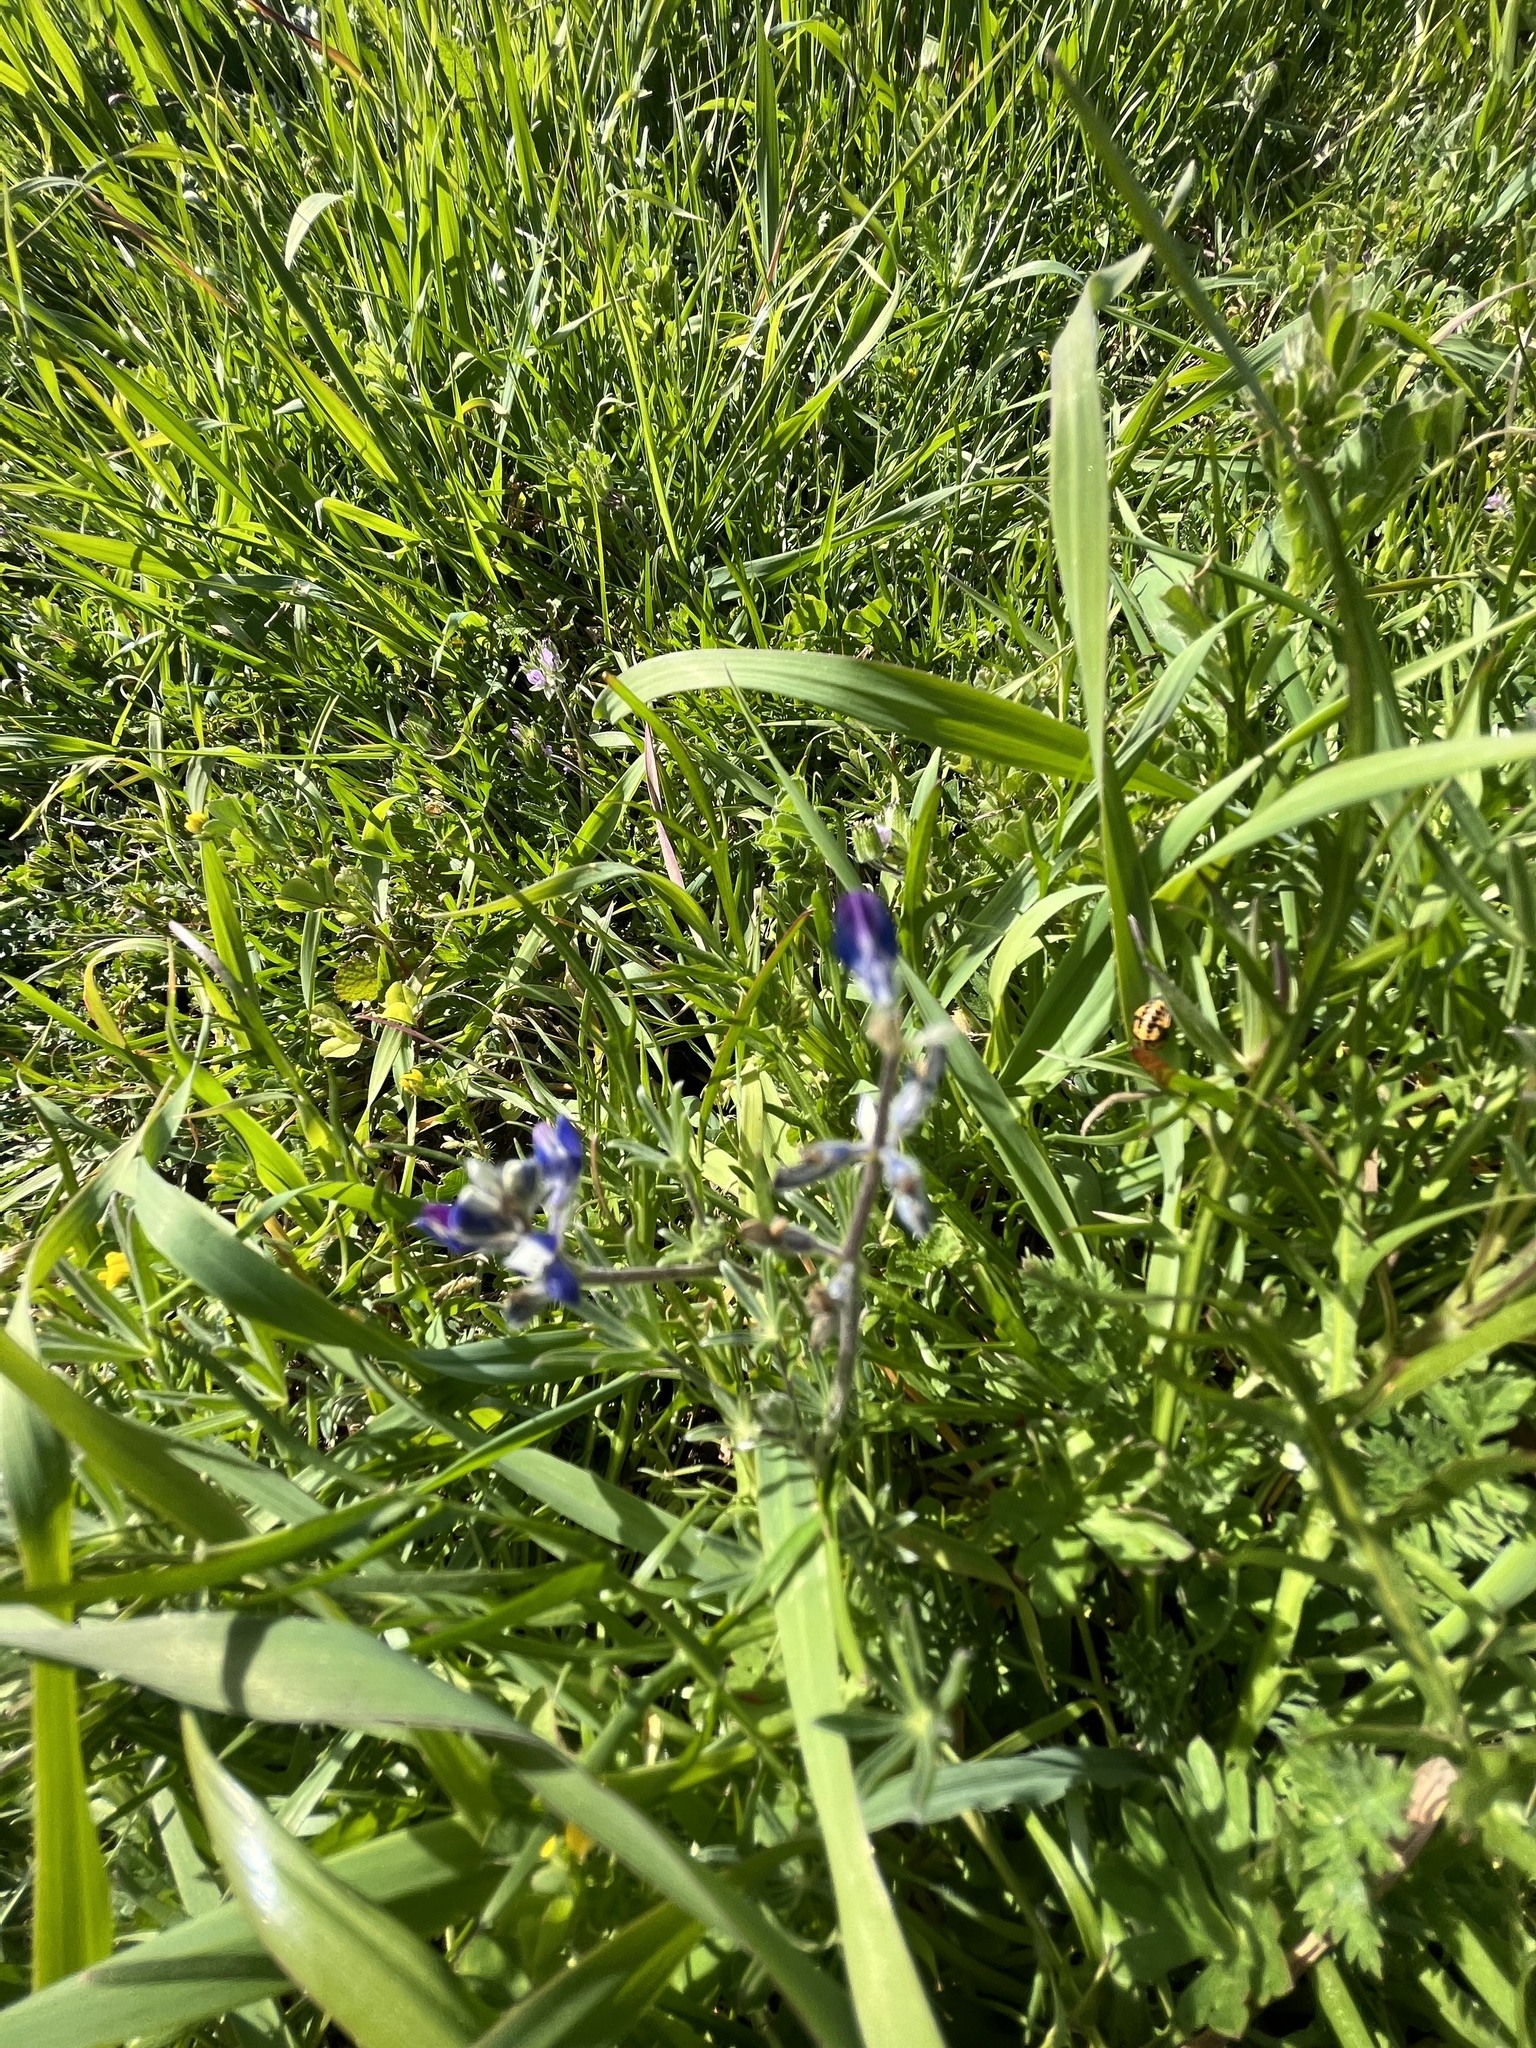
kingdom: Plantae
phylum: Tracheophyta
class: Magnoliopsida
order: Fabales
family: Fabaceae
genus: Lupinus
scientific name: Lupinus bicolor
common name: Miniature lupine
